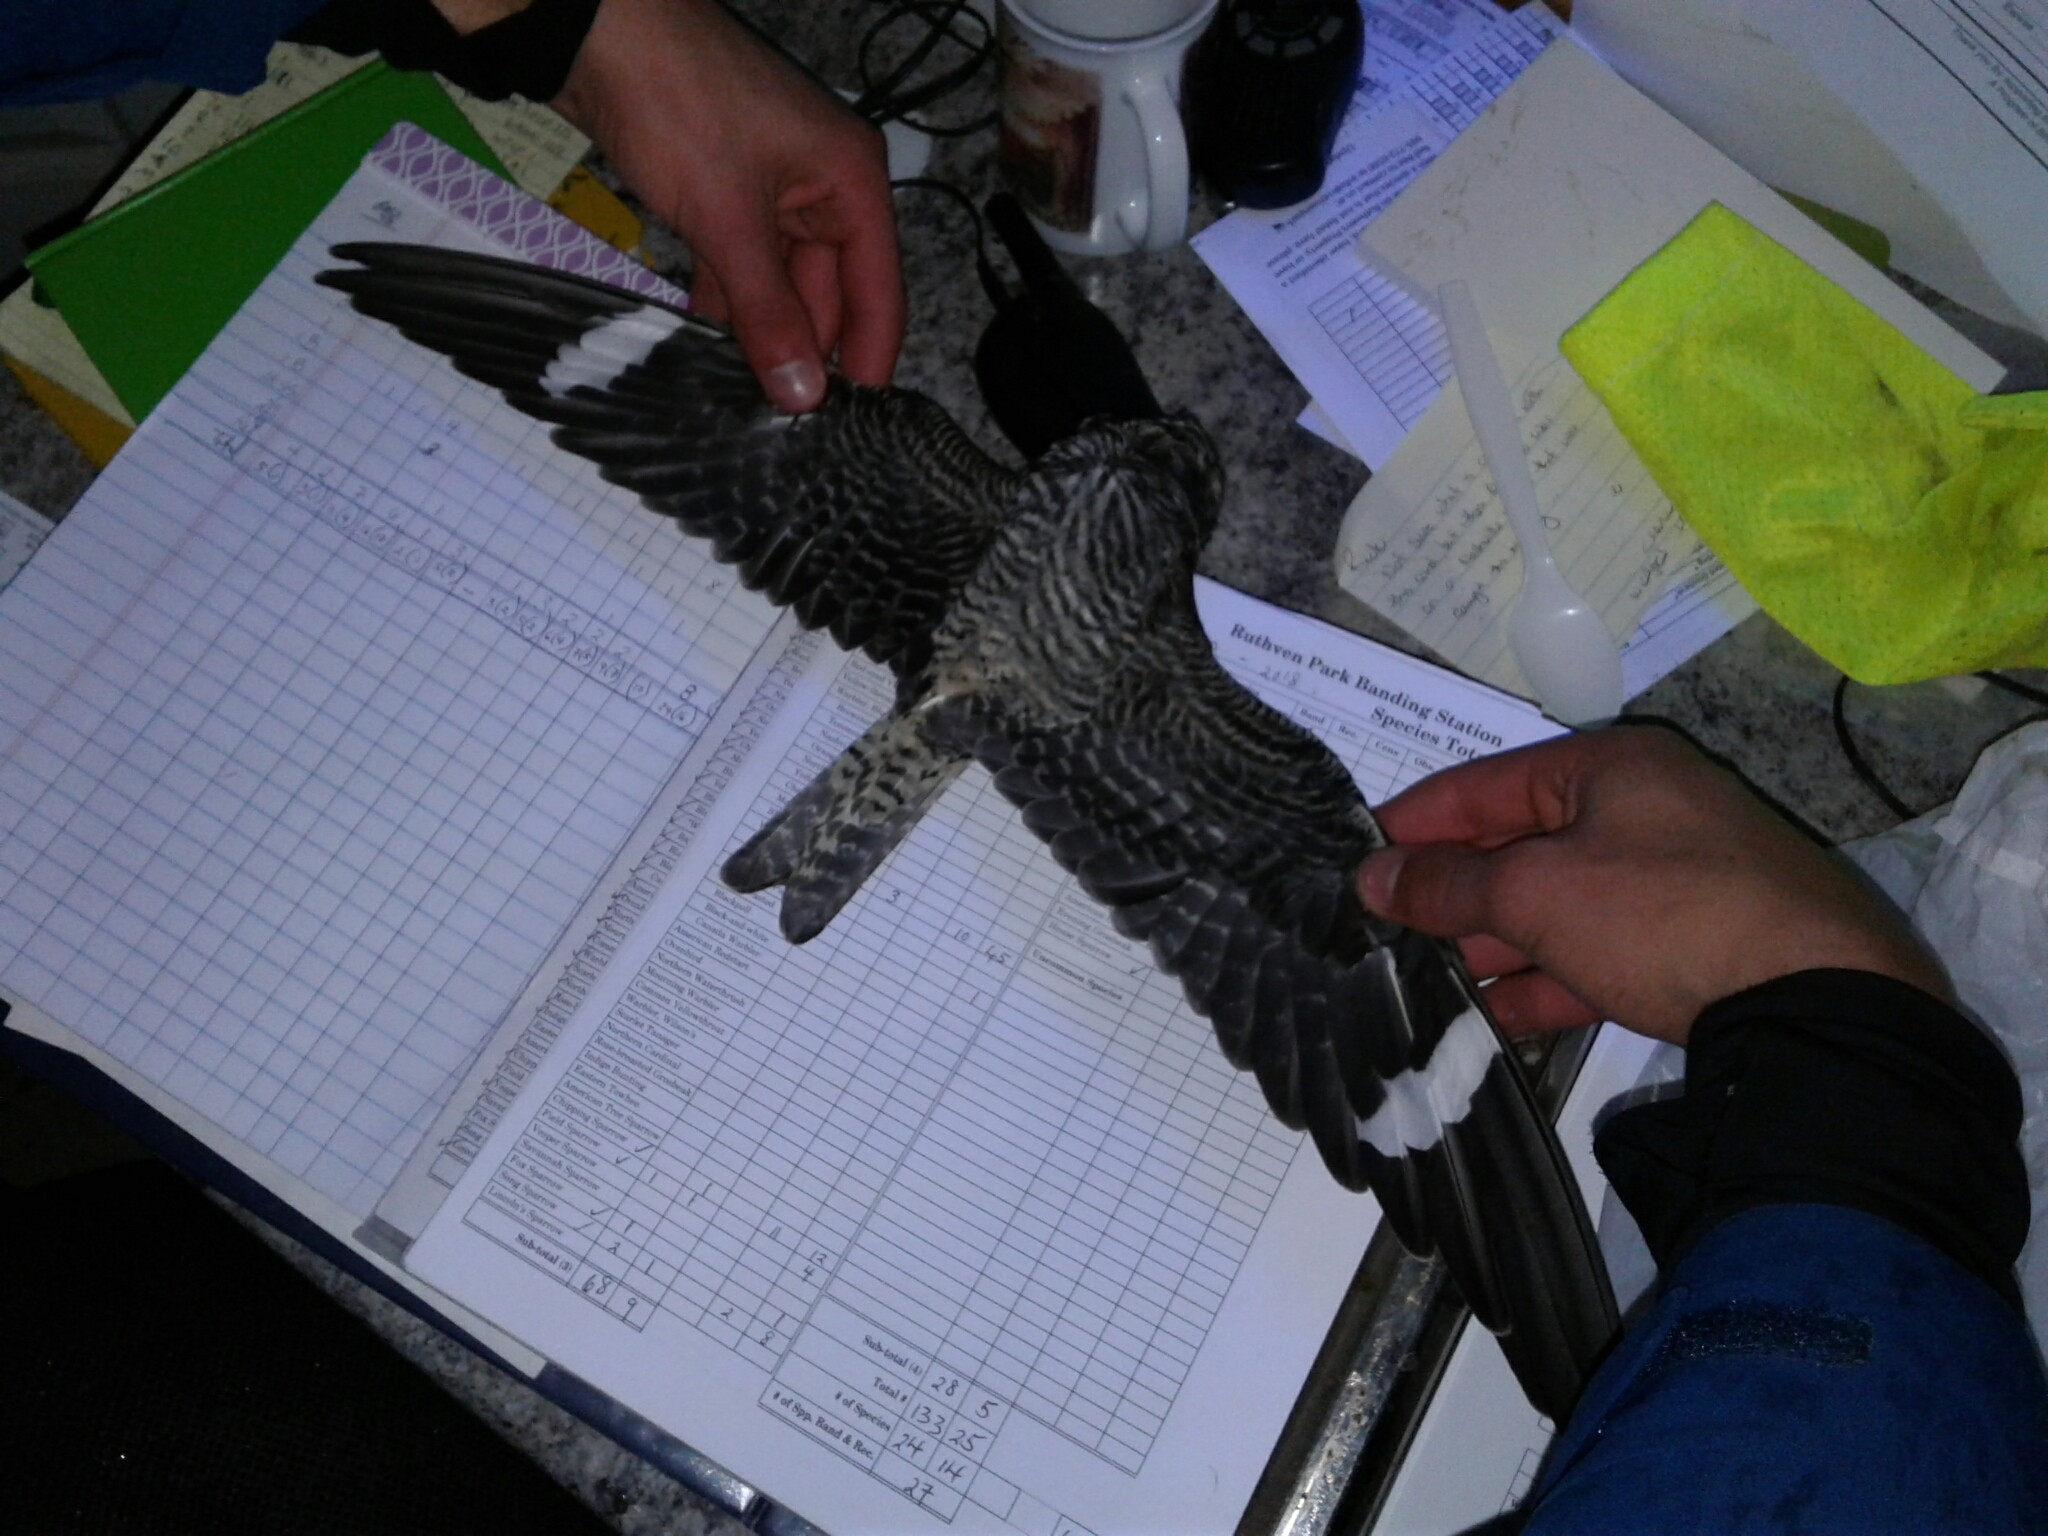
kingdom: Animalia
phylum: Chordata
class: Aves
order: Caprimulgiformes
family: Caprimulgidae
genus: Chordeiles
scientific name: Chordeiles minor
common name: Common nighthawk
